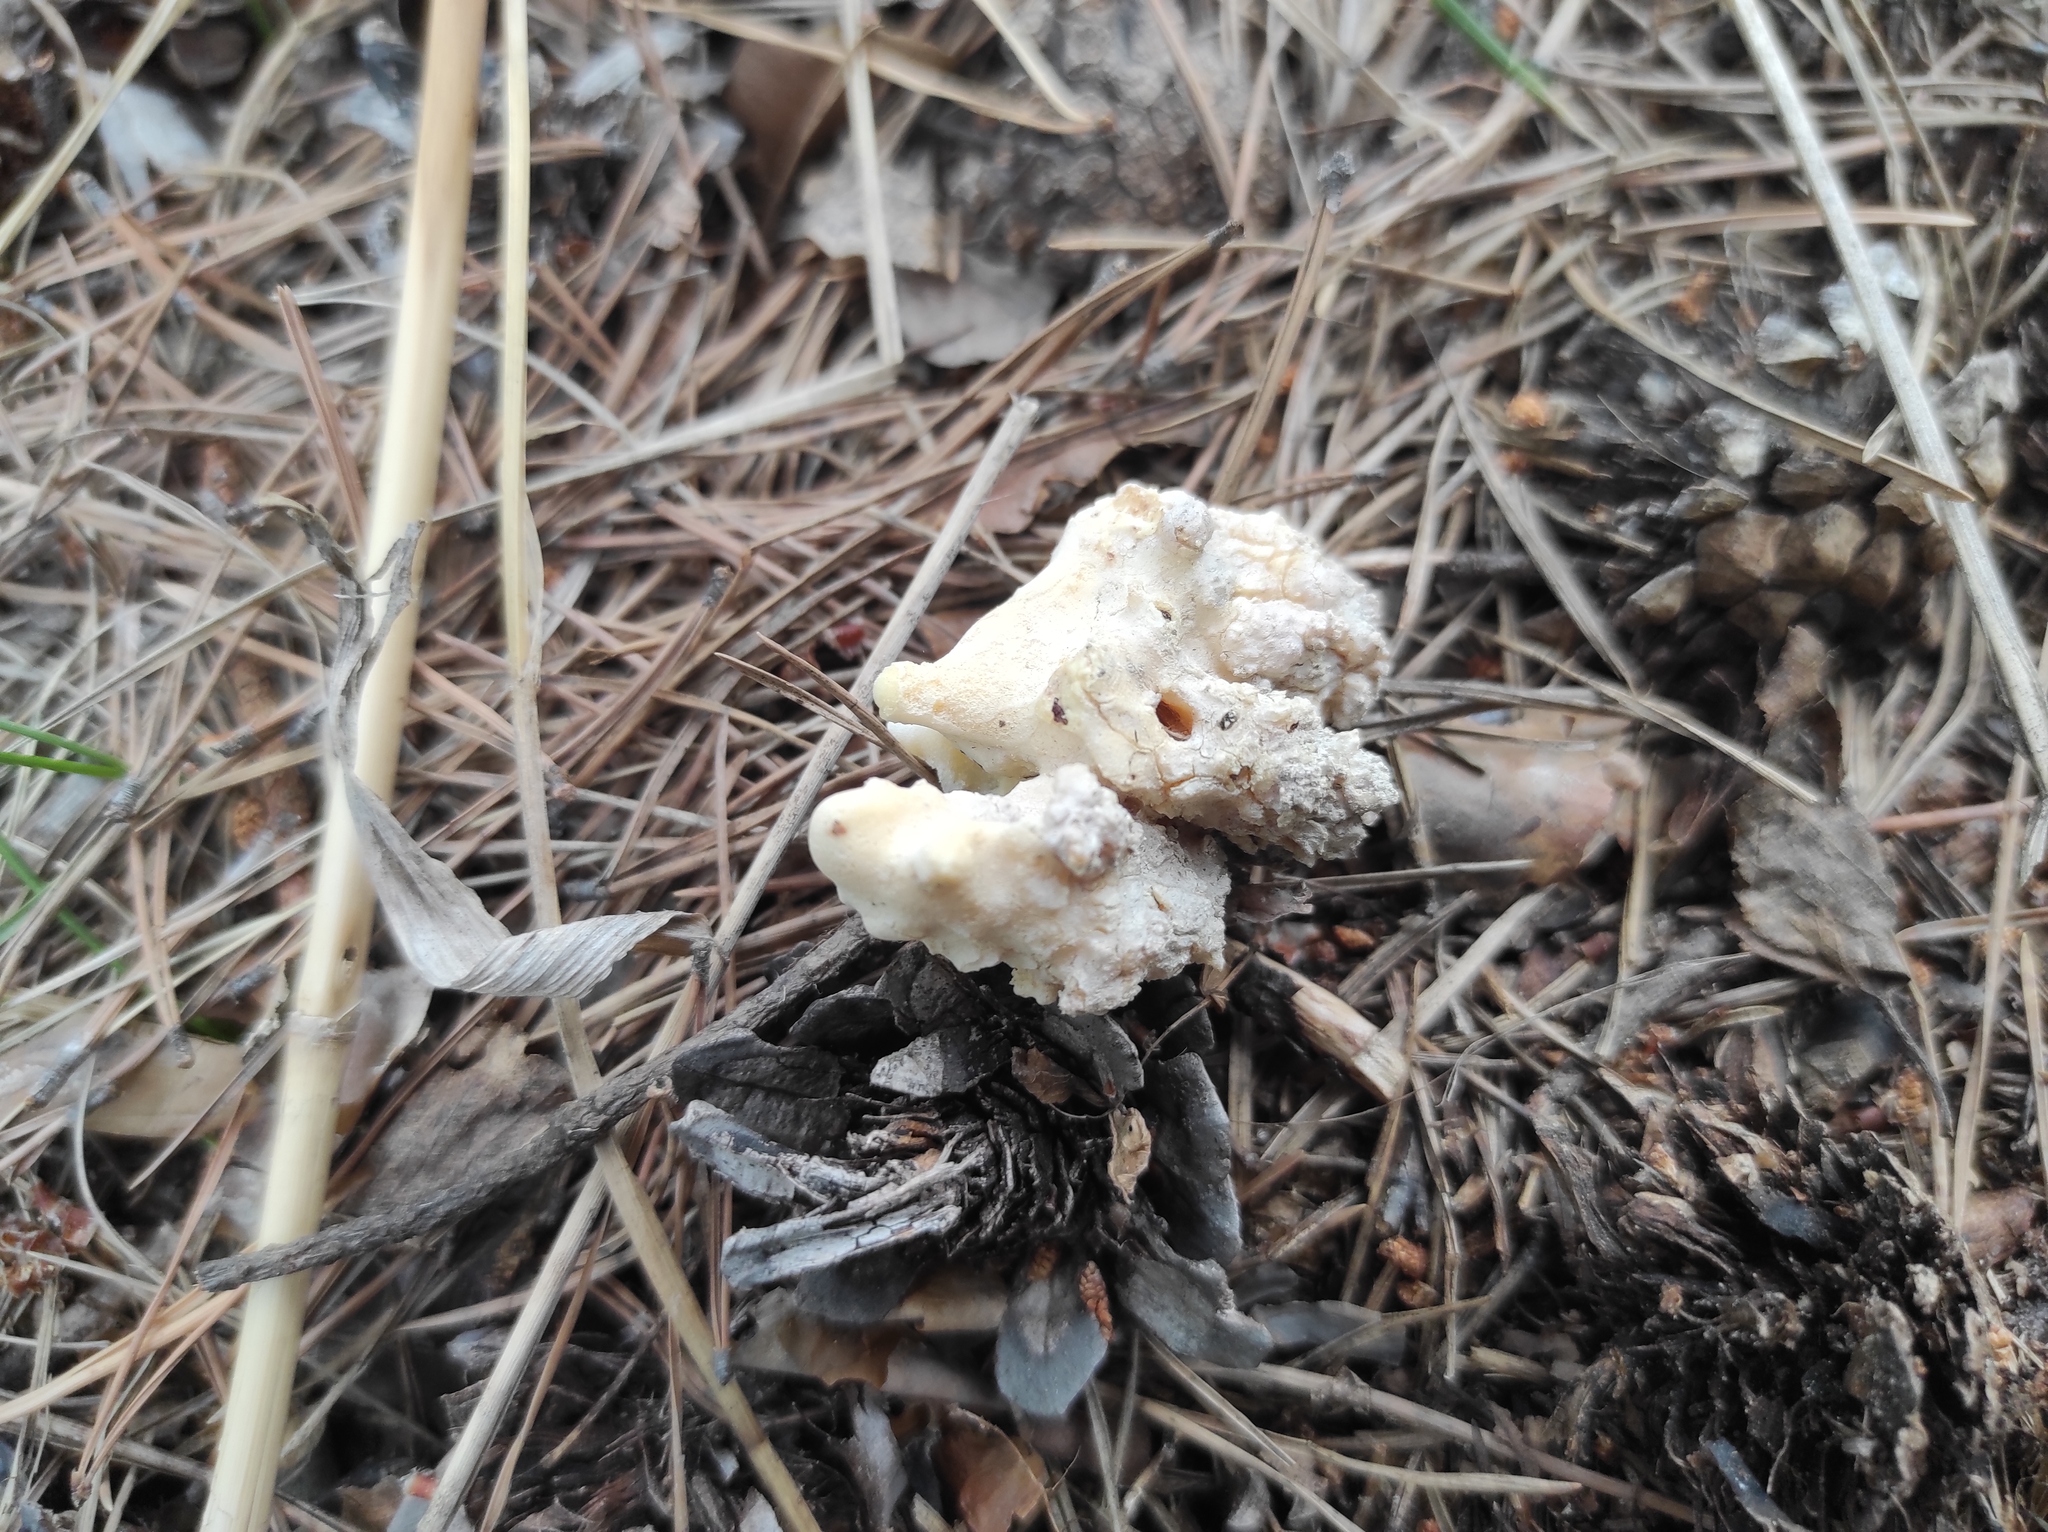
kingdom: Plantae
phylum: Tracheophyta
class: Pinopsida
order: Pinales
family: Pinaceae
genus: Pinus
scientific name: Pinus sylvestris
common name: Scots pine
